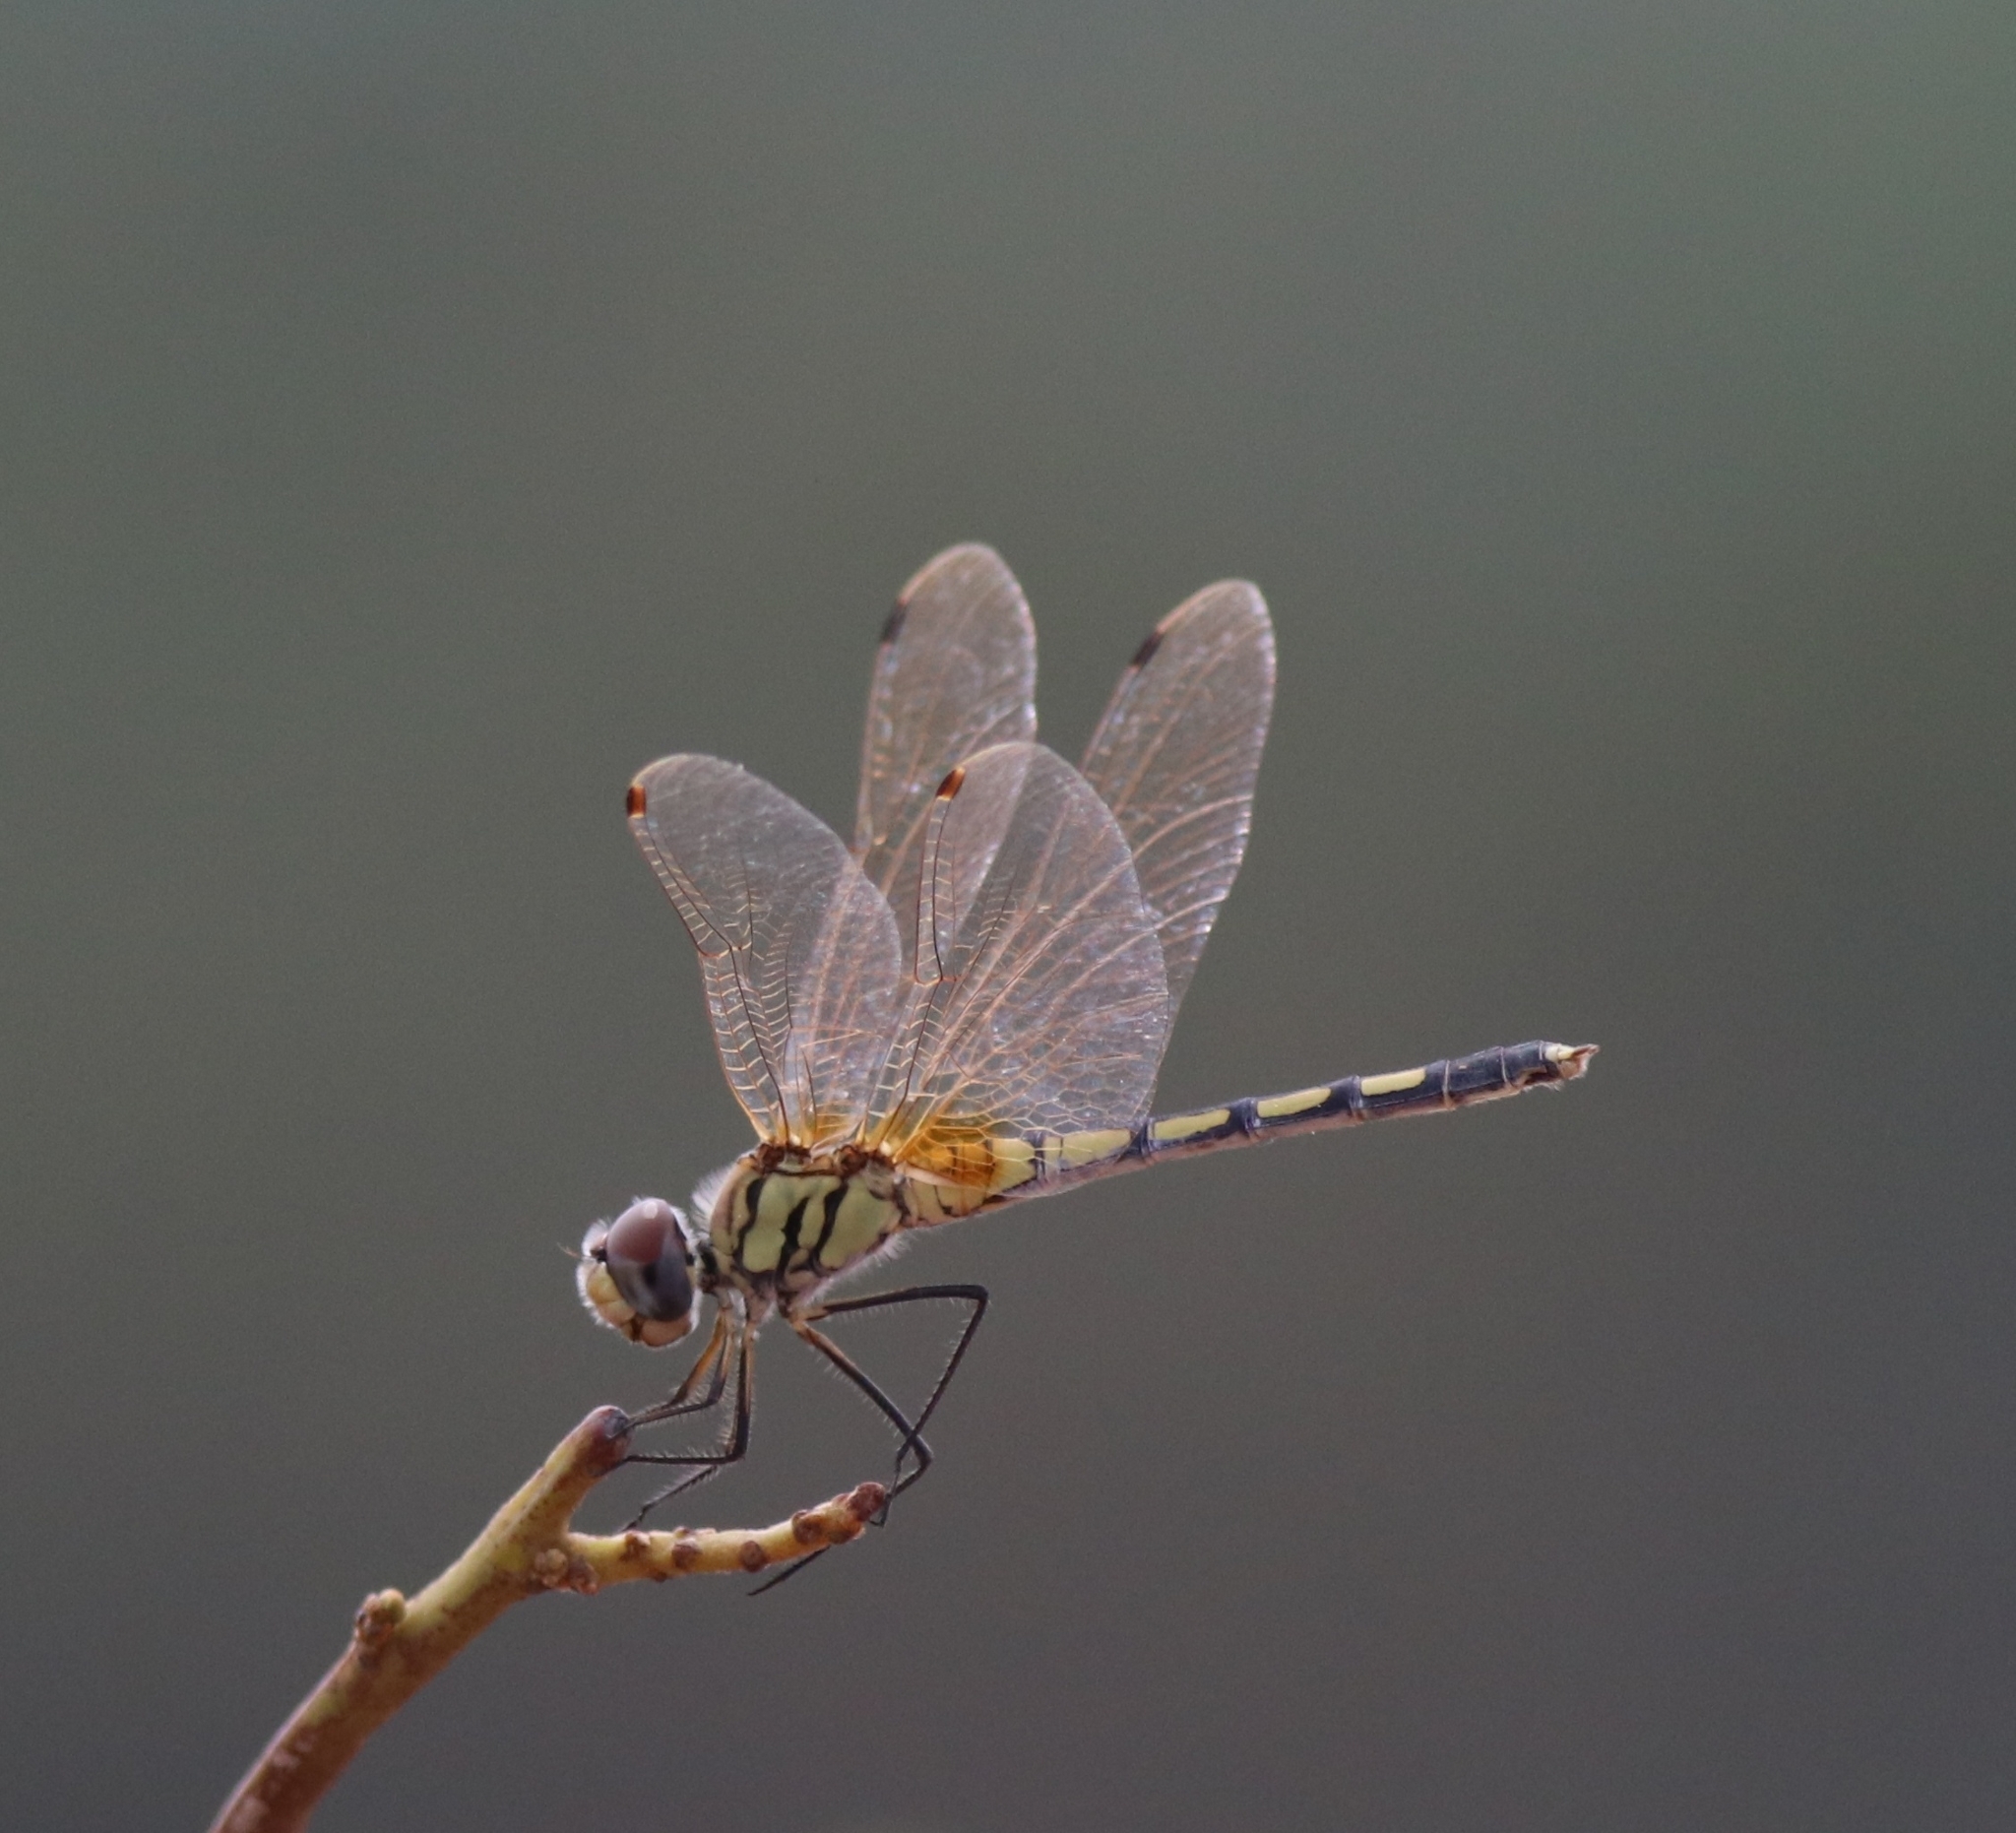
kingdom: Animalia
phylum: Arthropoda
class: Insecta
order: Odonata
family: Libellulidae
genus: Trithemis
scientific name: Trithemis pallidinervis
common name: Dancing dropwing
